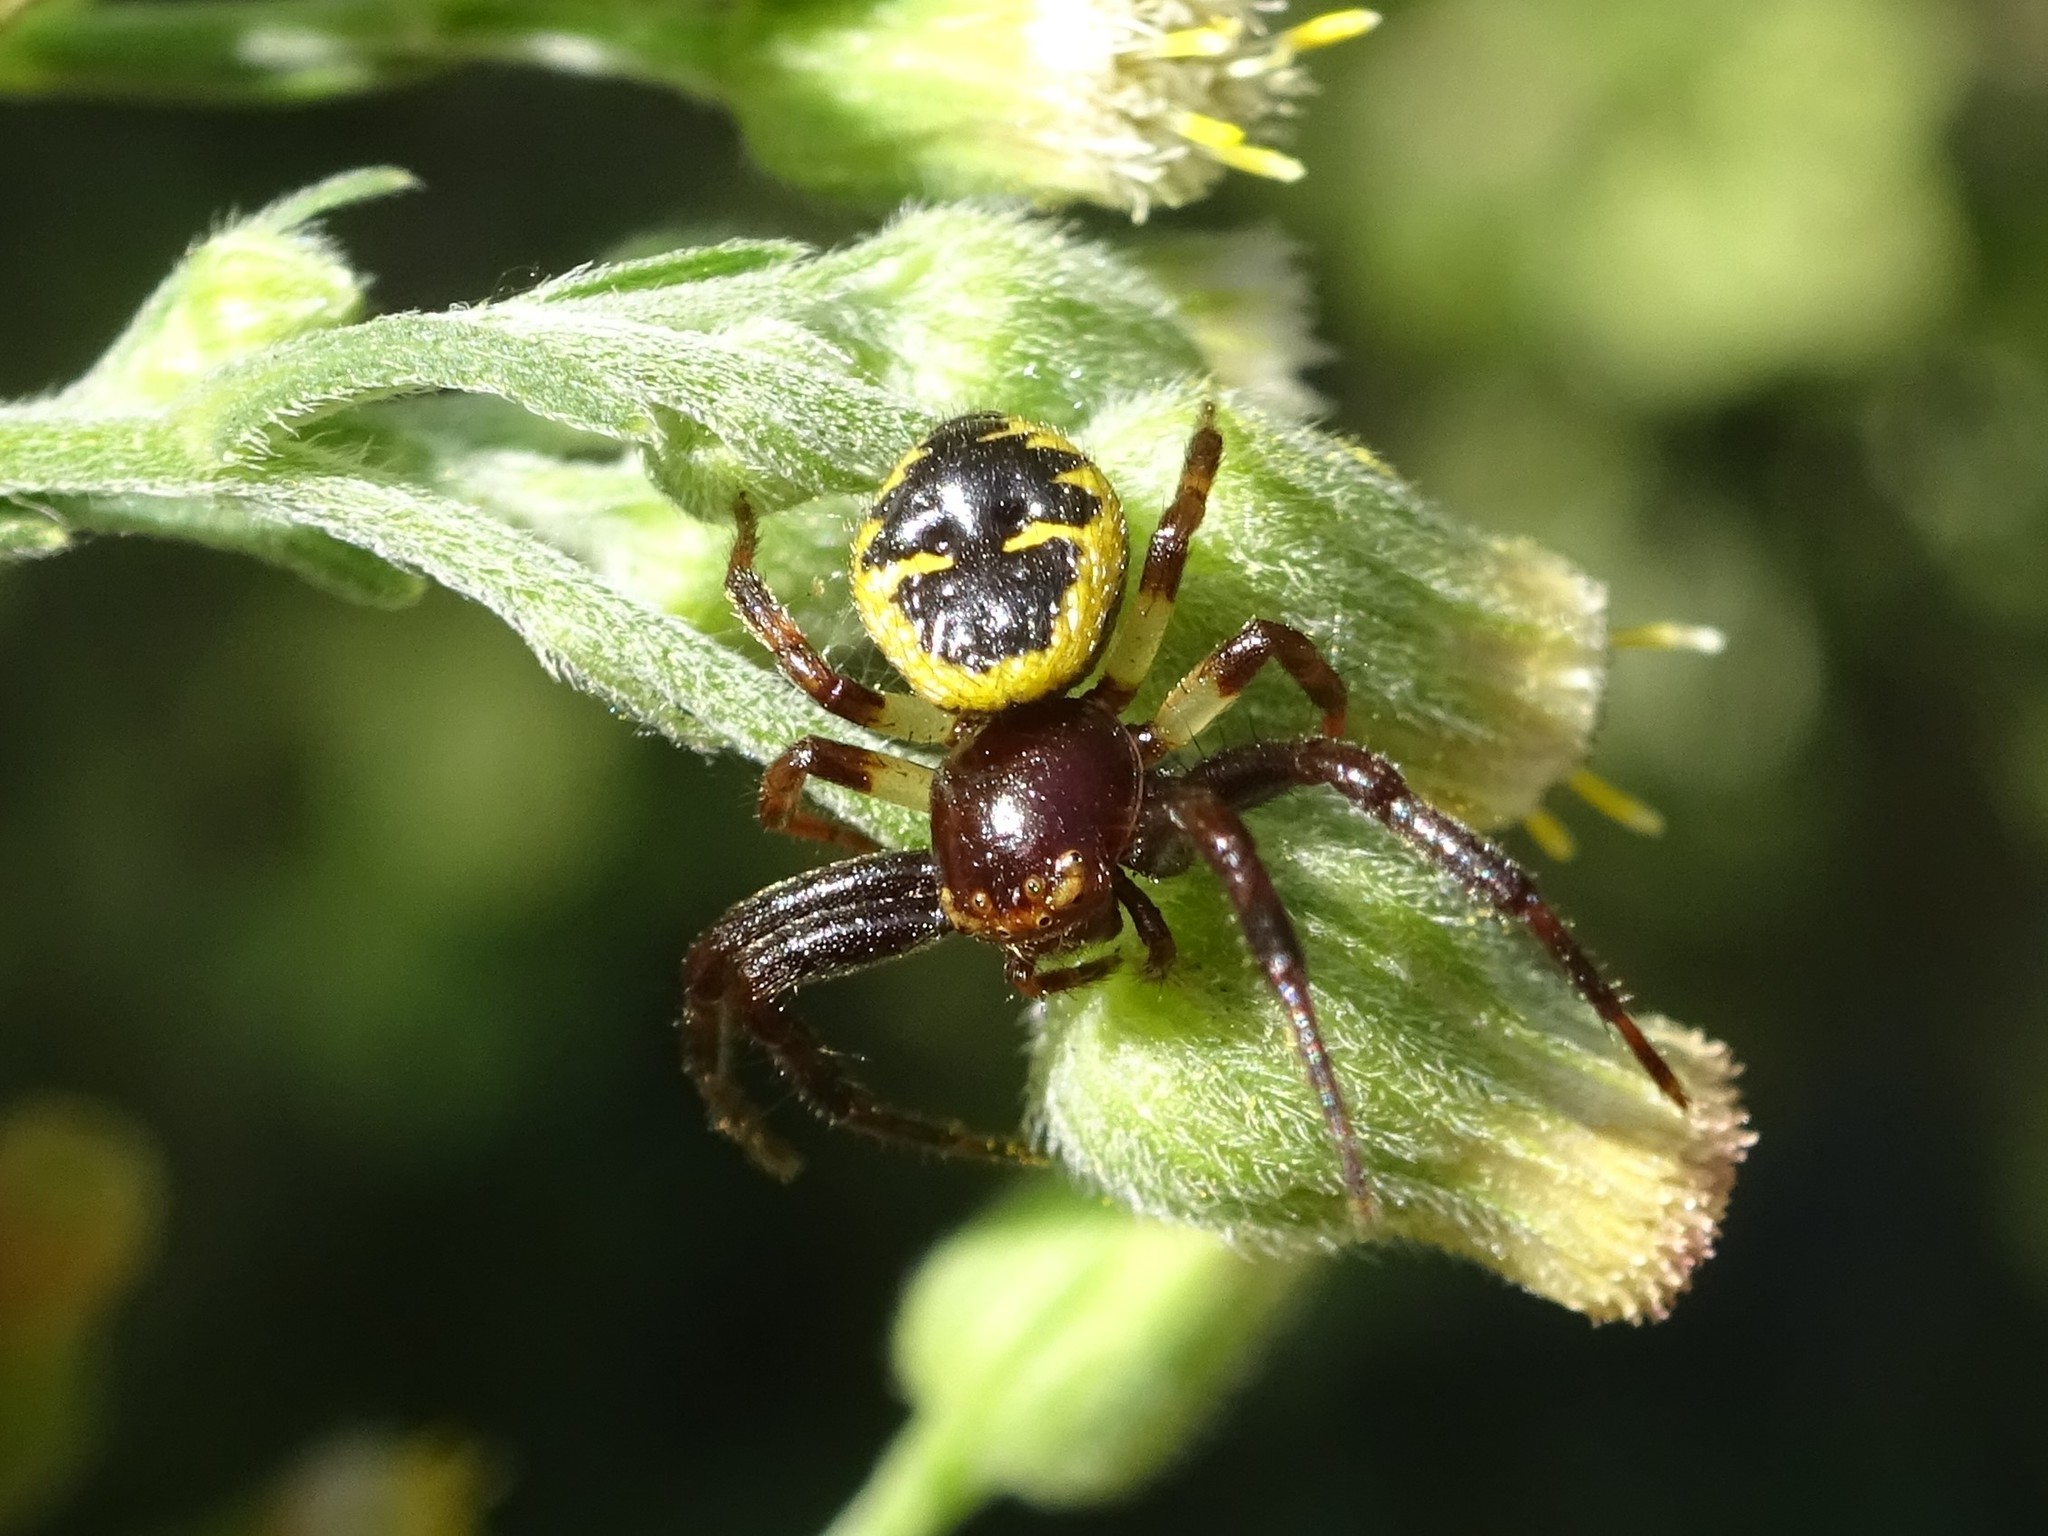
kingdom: Animalia
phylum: Arthropoda
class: Arachnida
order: Araneae
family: Thomisidae
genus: Synema
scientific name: Synema globosum
